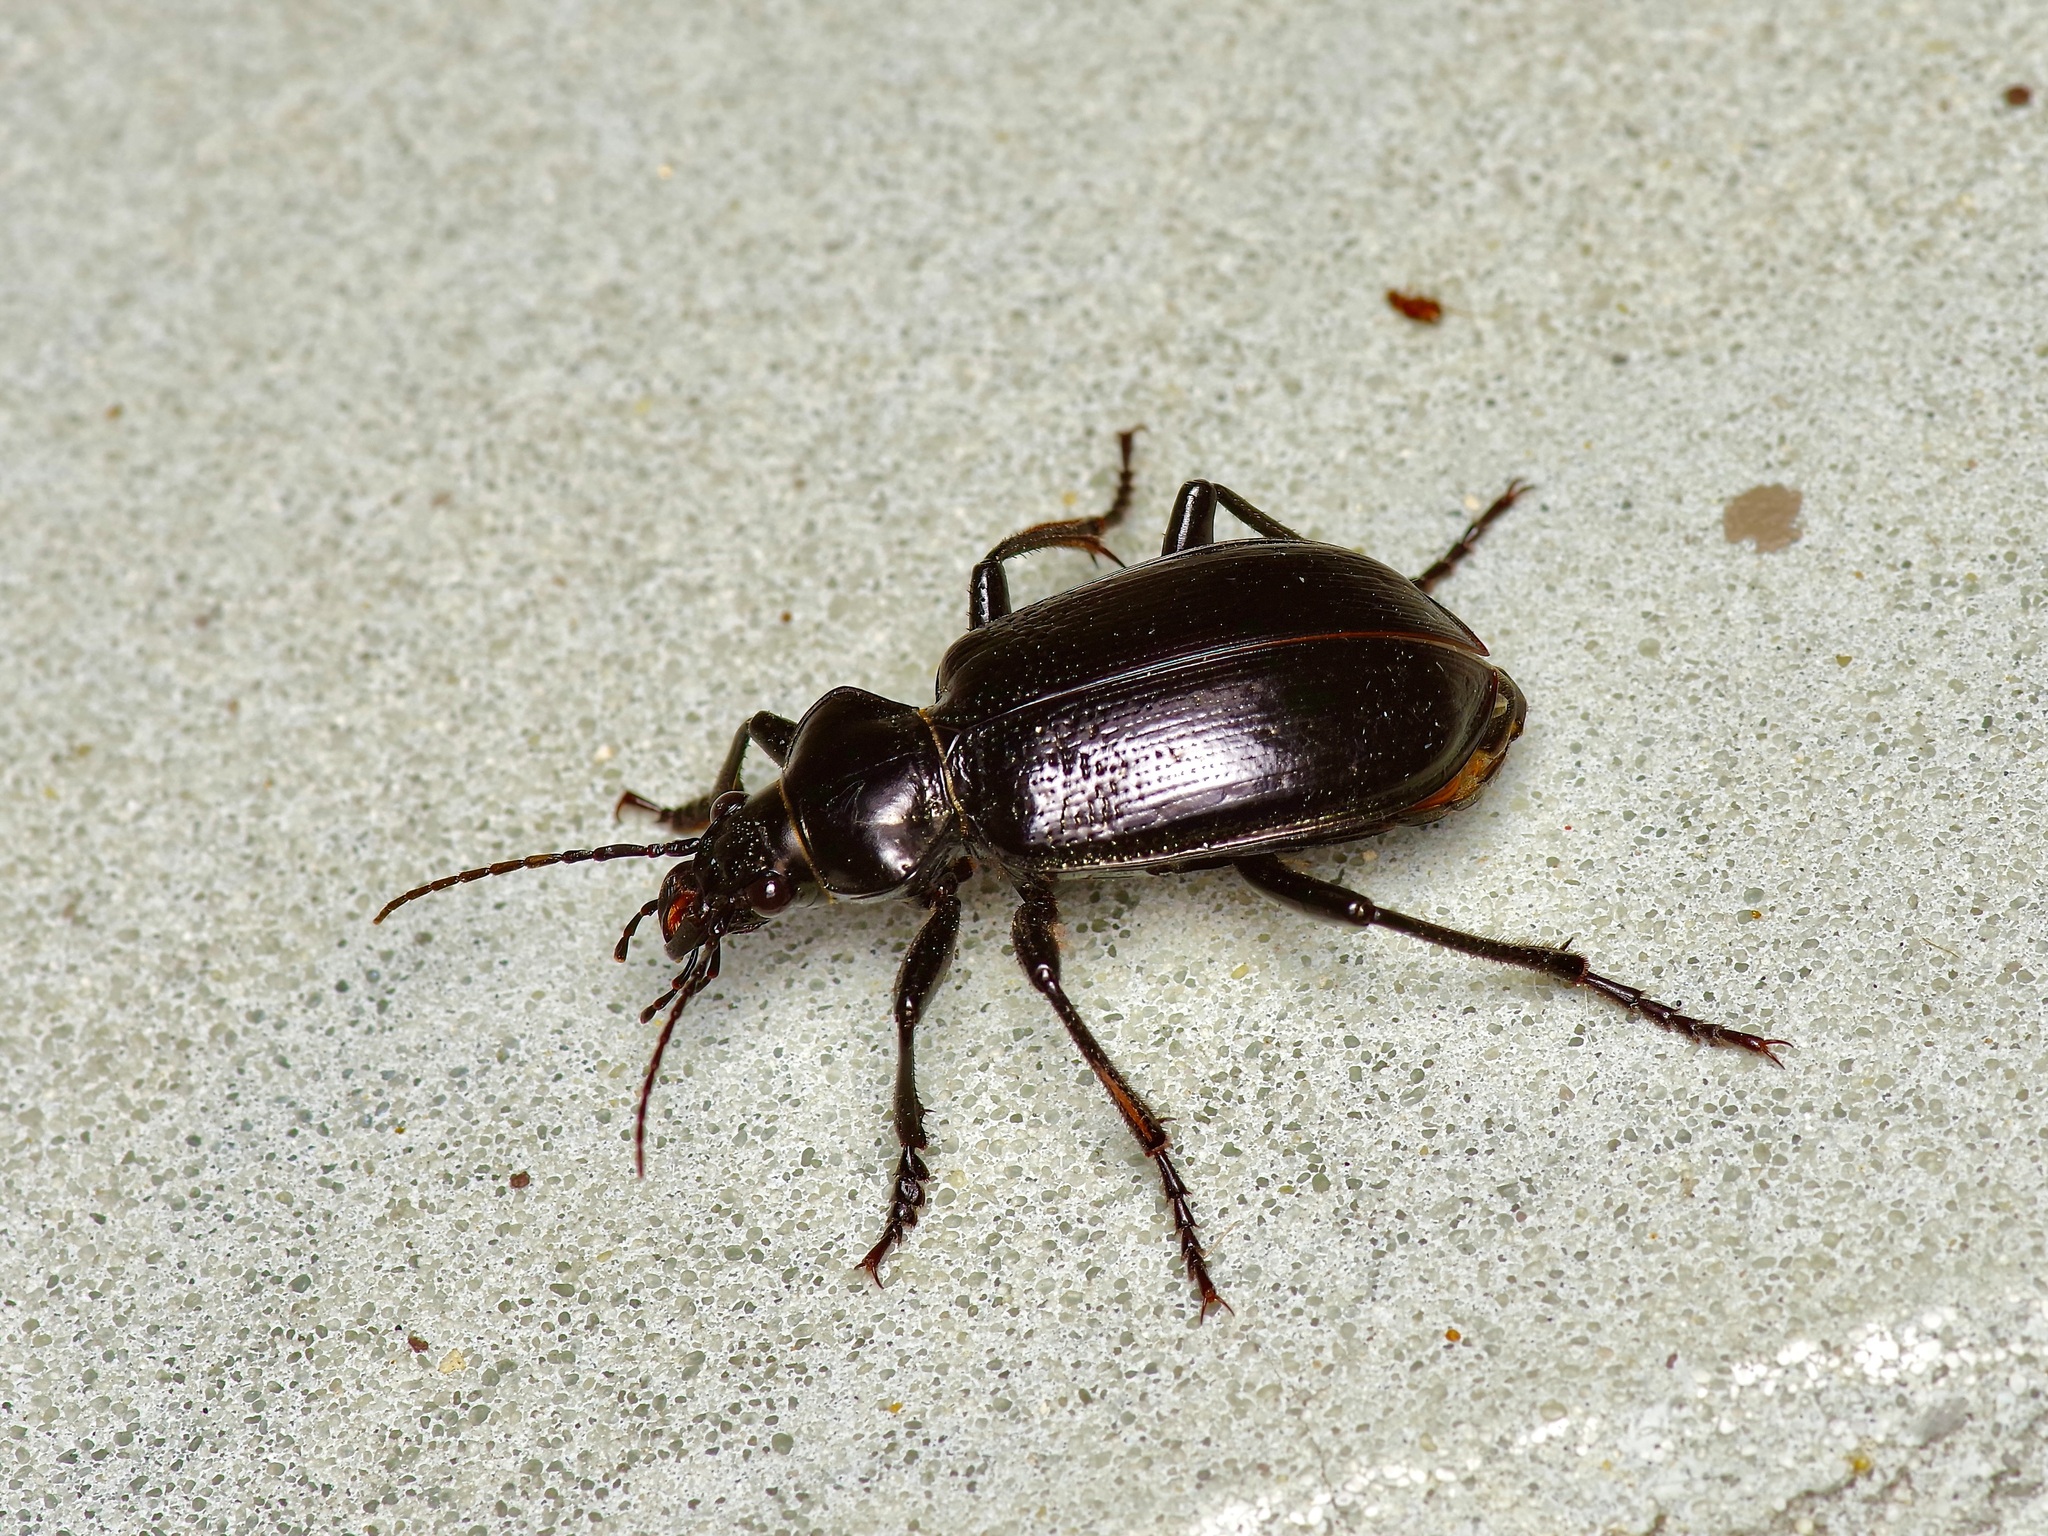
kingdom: Animalia
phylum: Arthropoda
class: Insecta
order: Coleoptera
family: Carabidae
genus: Calosoma
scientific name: Calosoma marginale
